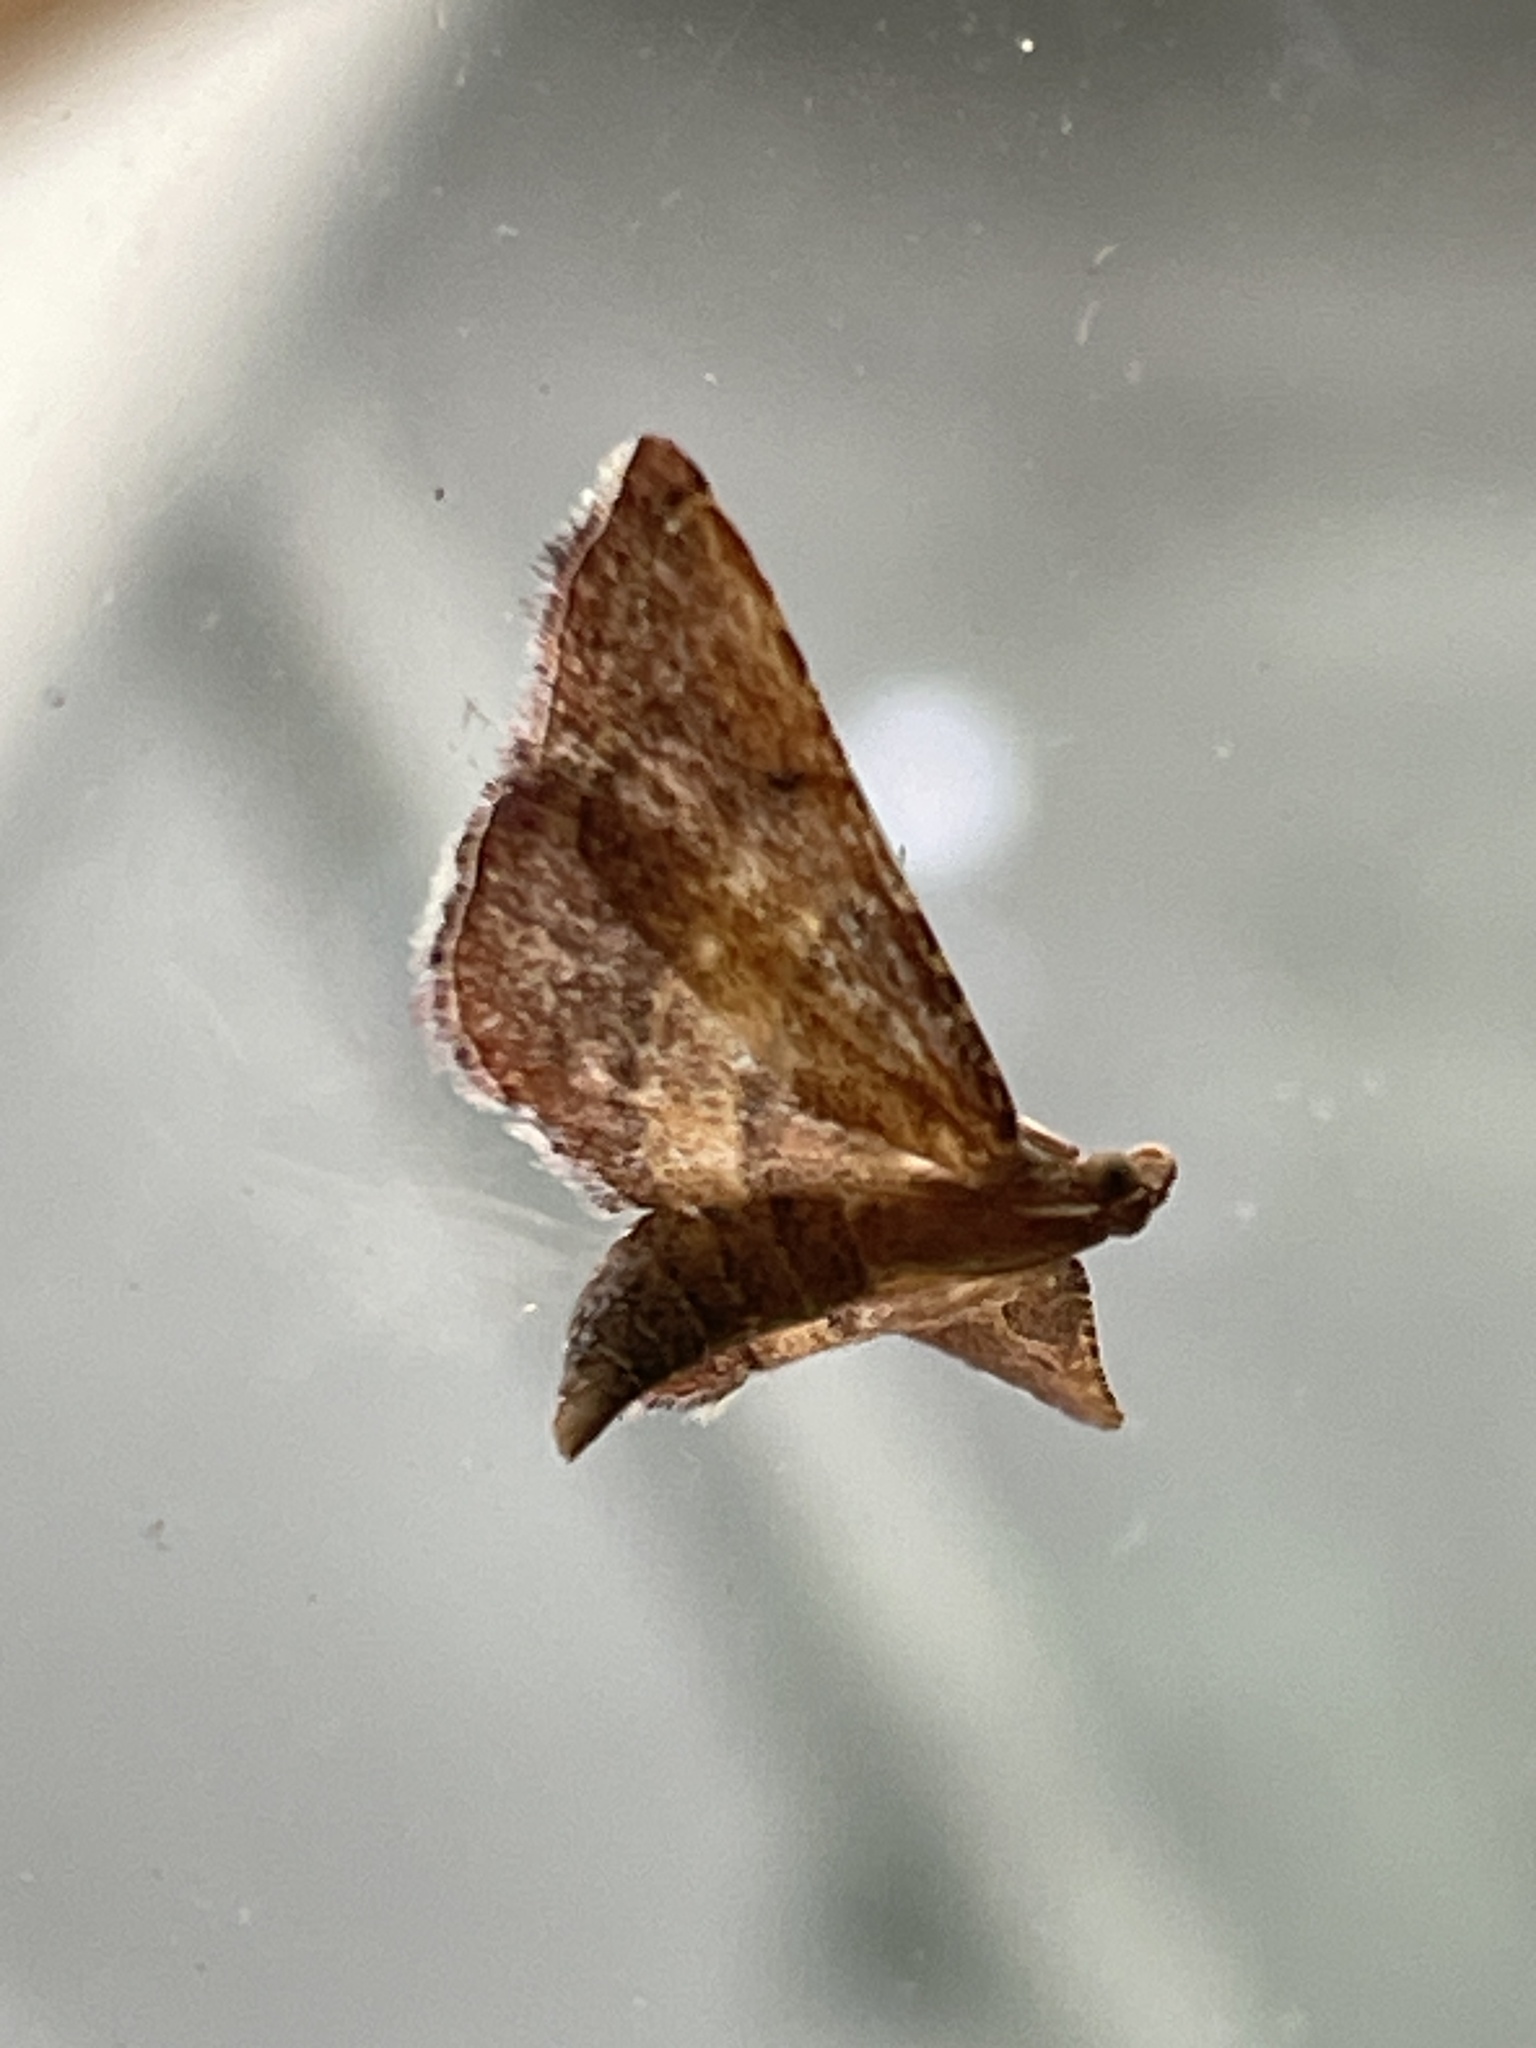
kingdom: Animalia
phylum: Arthropoda
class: Insecta
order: Lepidoptera
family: Pyralidae
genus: Endotricha
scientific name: Endotricha flammealis
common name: Rosy tabby
